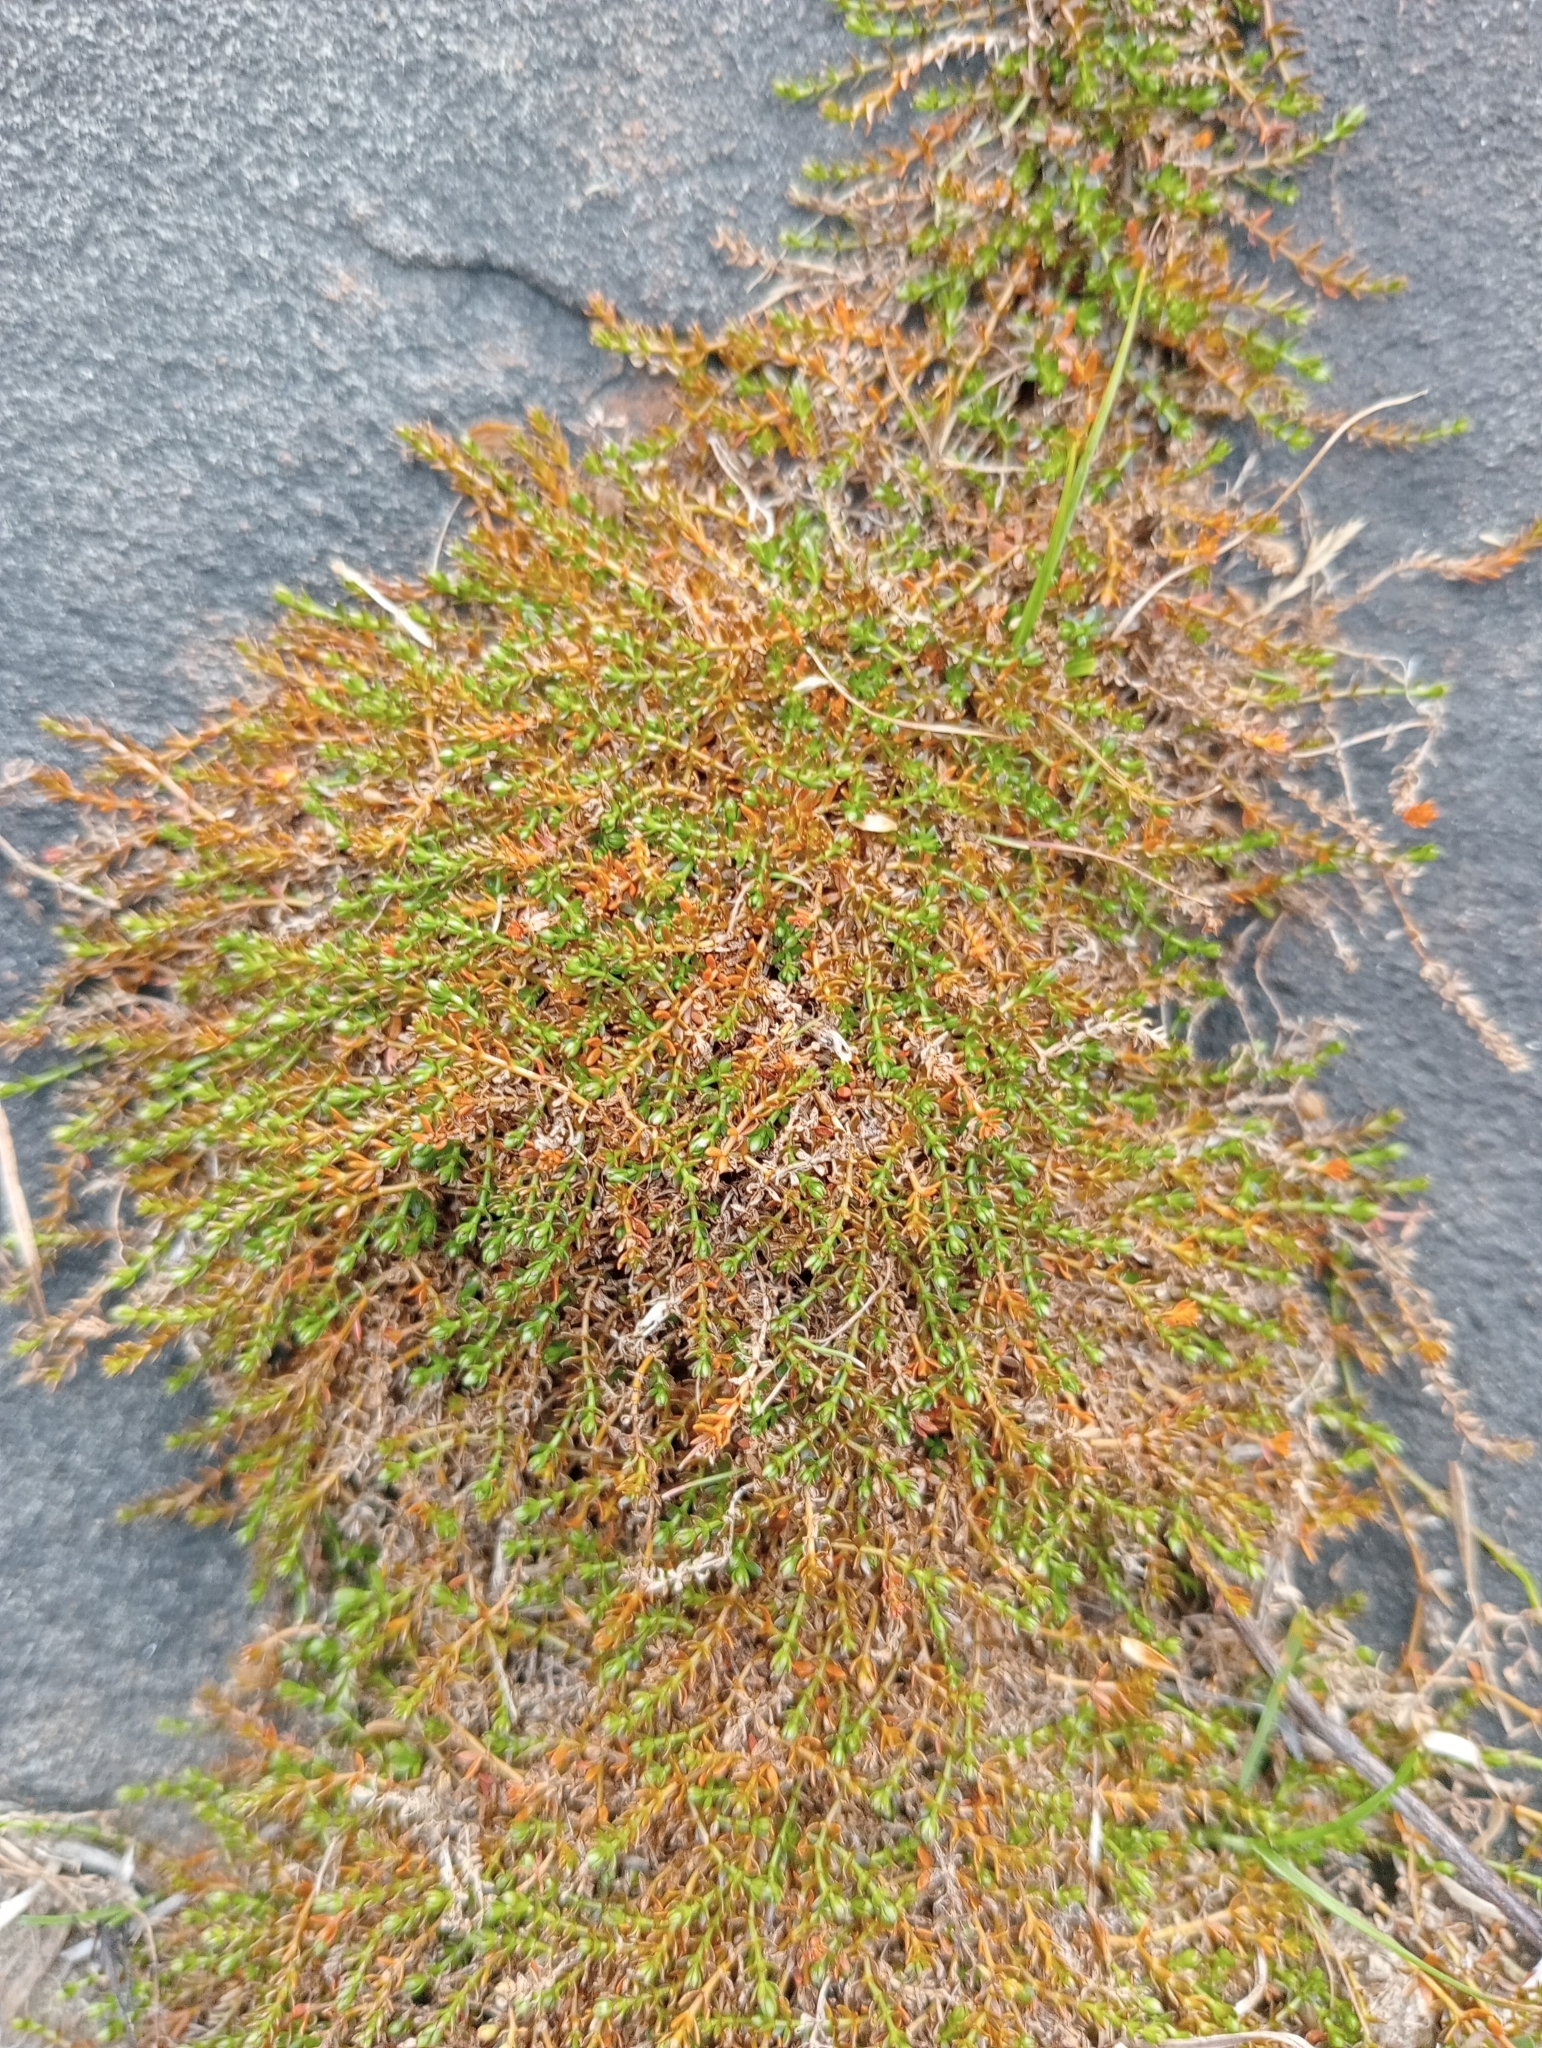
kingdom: Plantae
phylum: Tracheophyta
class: Magnoliopsida
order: Gentianales
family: Rubiaceae
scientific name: Rubiaceae
